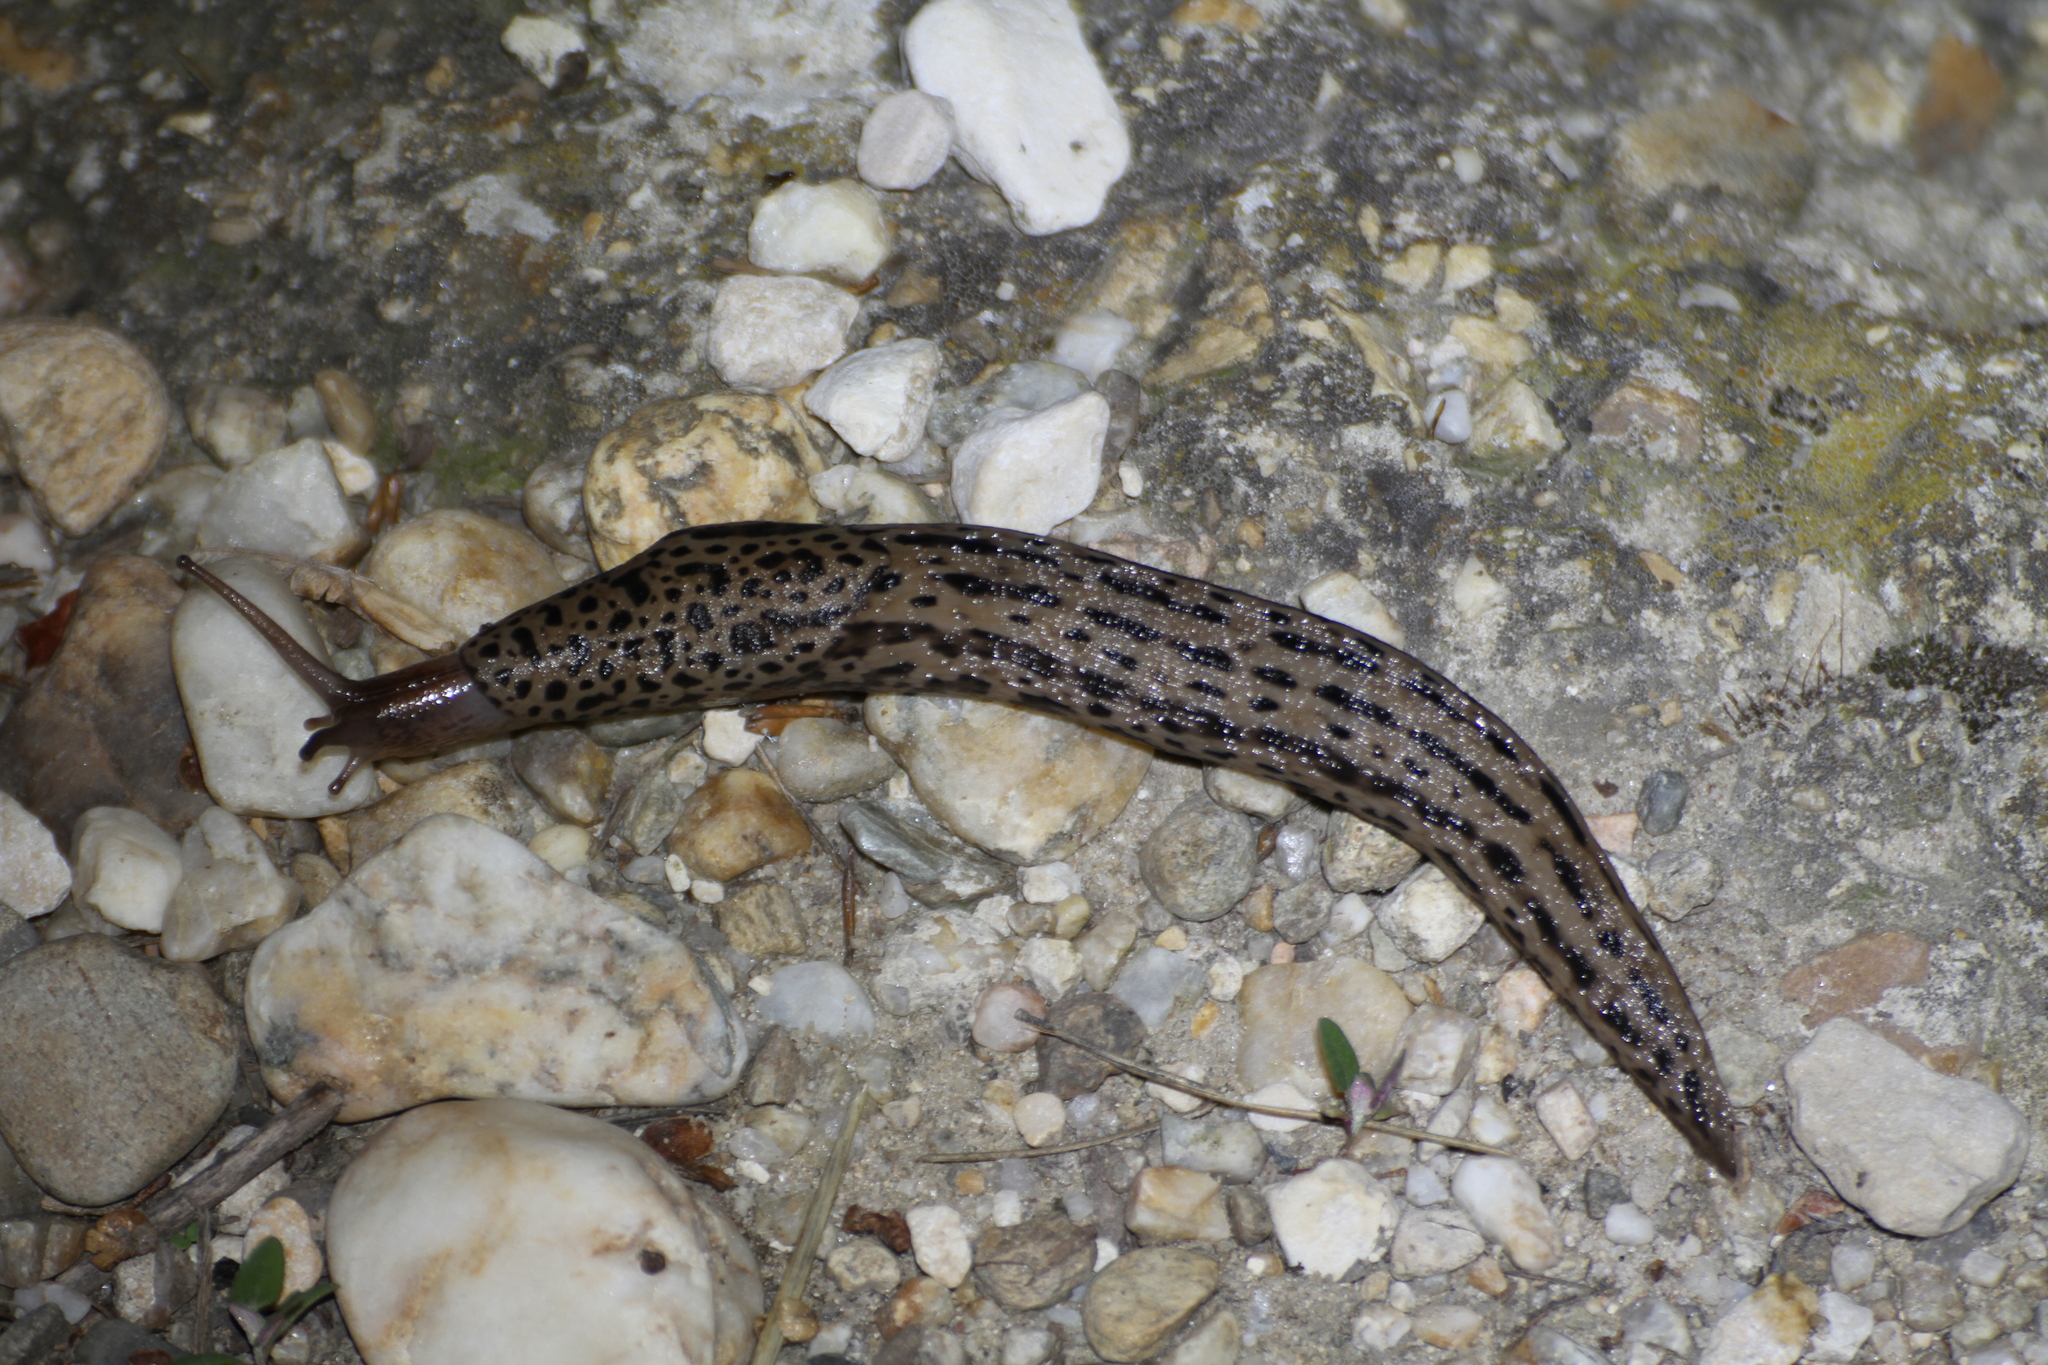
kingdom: Animalia
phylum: Mollusca
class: Gastropoda
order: Stylommatophora
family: Limacidae
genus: Limax
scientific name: Limax maximus
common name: Great grey slug
